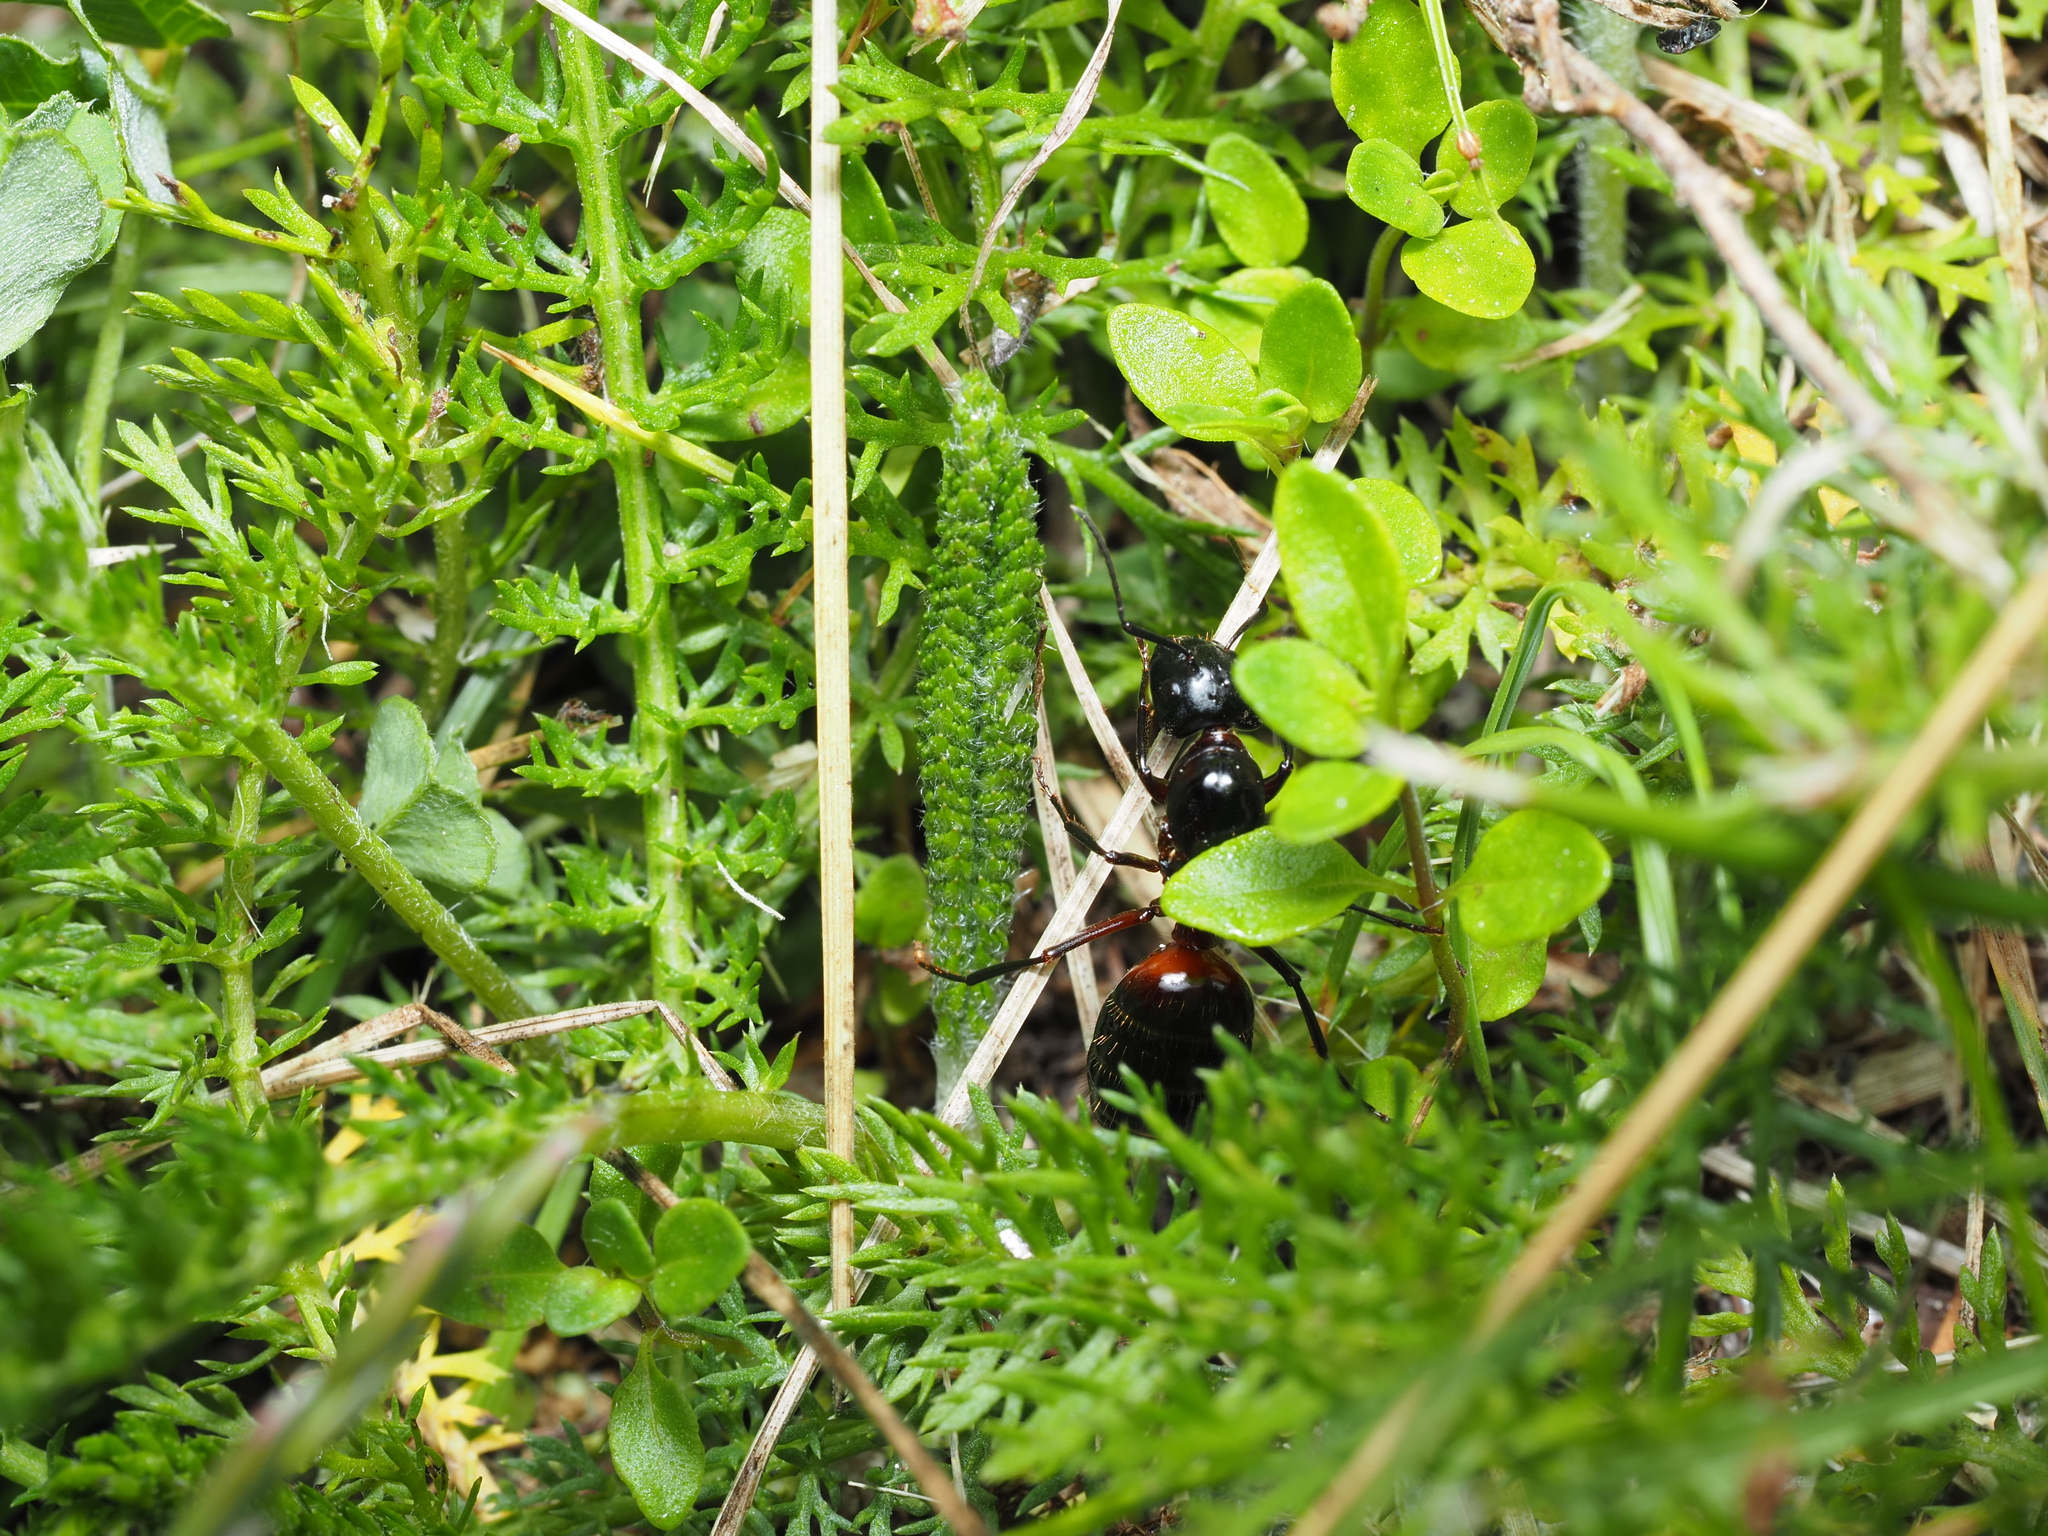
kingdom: Animalia
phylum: Arthropoda
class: Insecta
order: Hymenoptera
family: Formicidae
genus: Camponotus
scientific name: Camponotus ligniperdus
